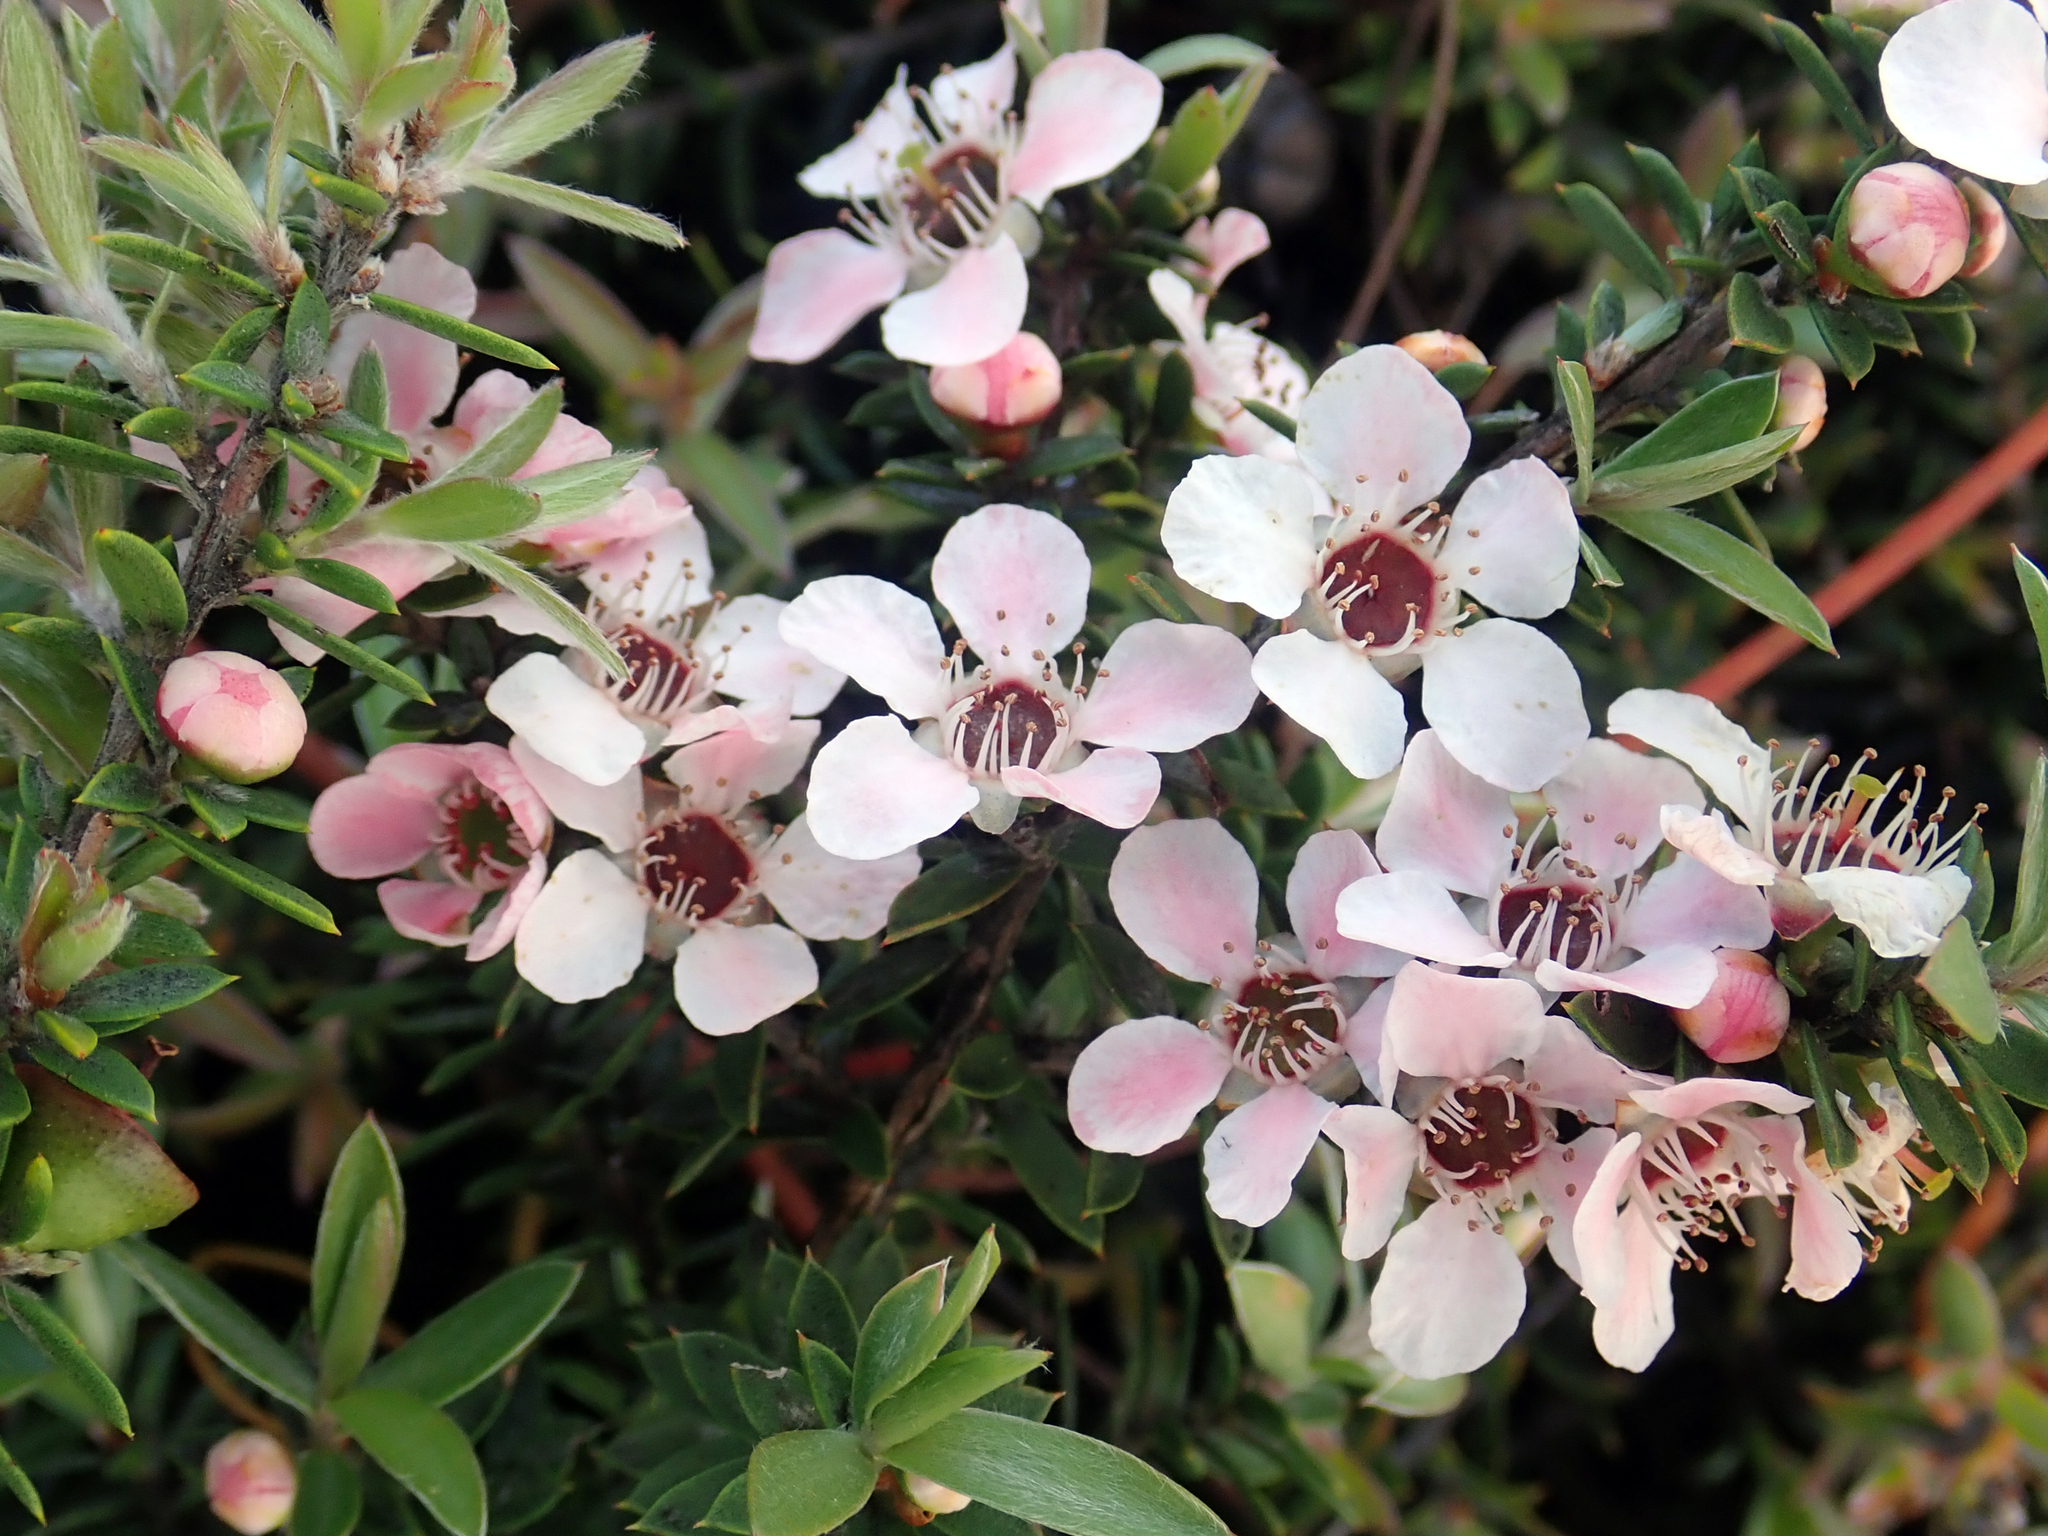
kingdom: Plantae
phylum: Tracheophyta
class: Magnoliopsida
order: Myrtales
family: Myrtaceae
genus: Leptospermum
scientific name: Leptospermum scoparium
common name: Broom tea-tree
